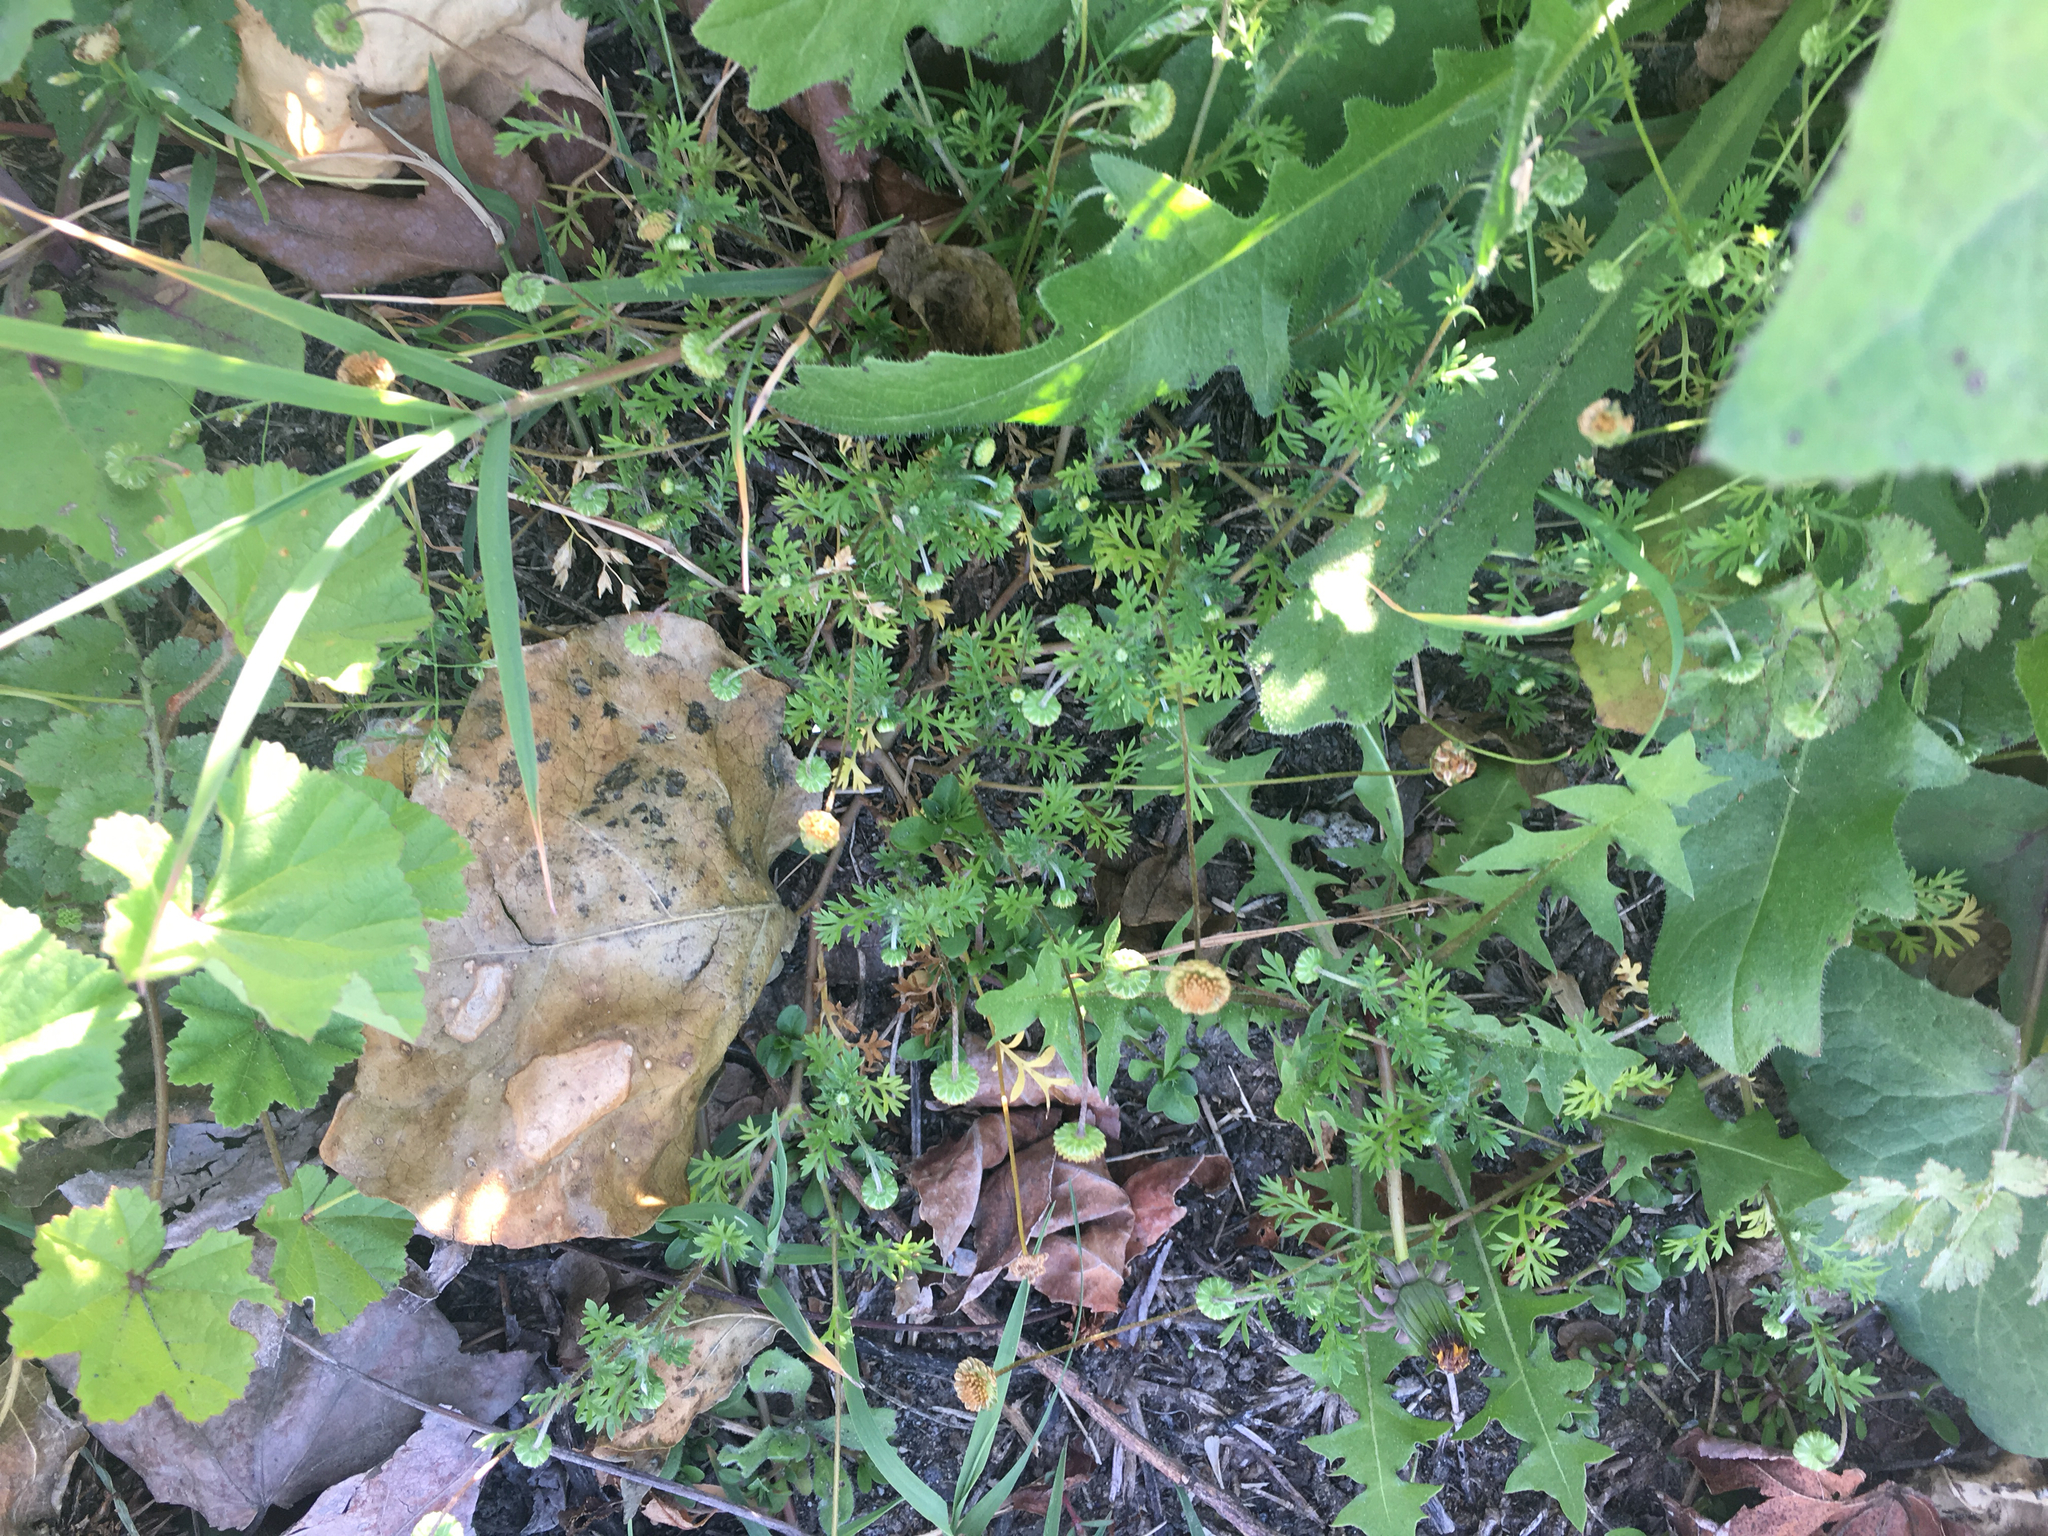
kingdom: Plantae
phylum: Tracheophyta
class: Magnoliopsida
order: Asterales
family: Asteraceae
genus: Cotula
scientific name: Cotula australis
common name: Australian waterbuttons
